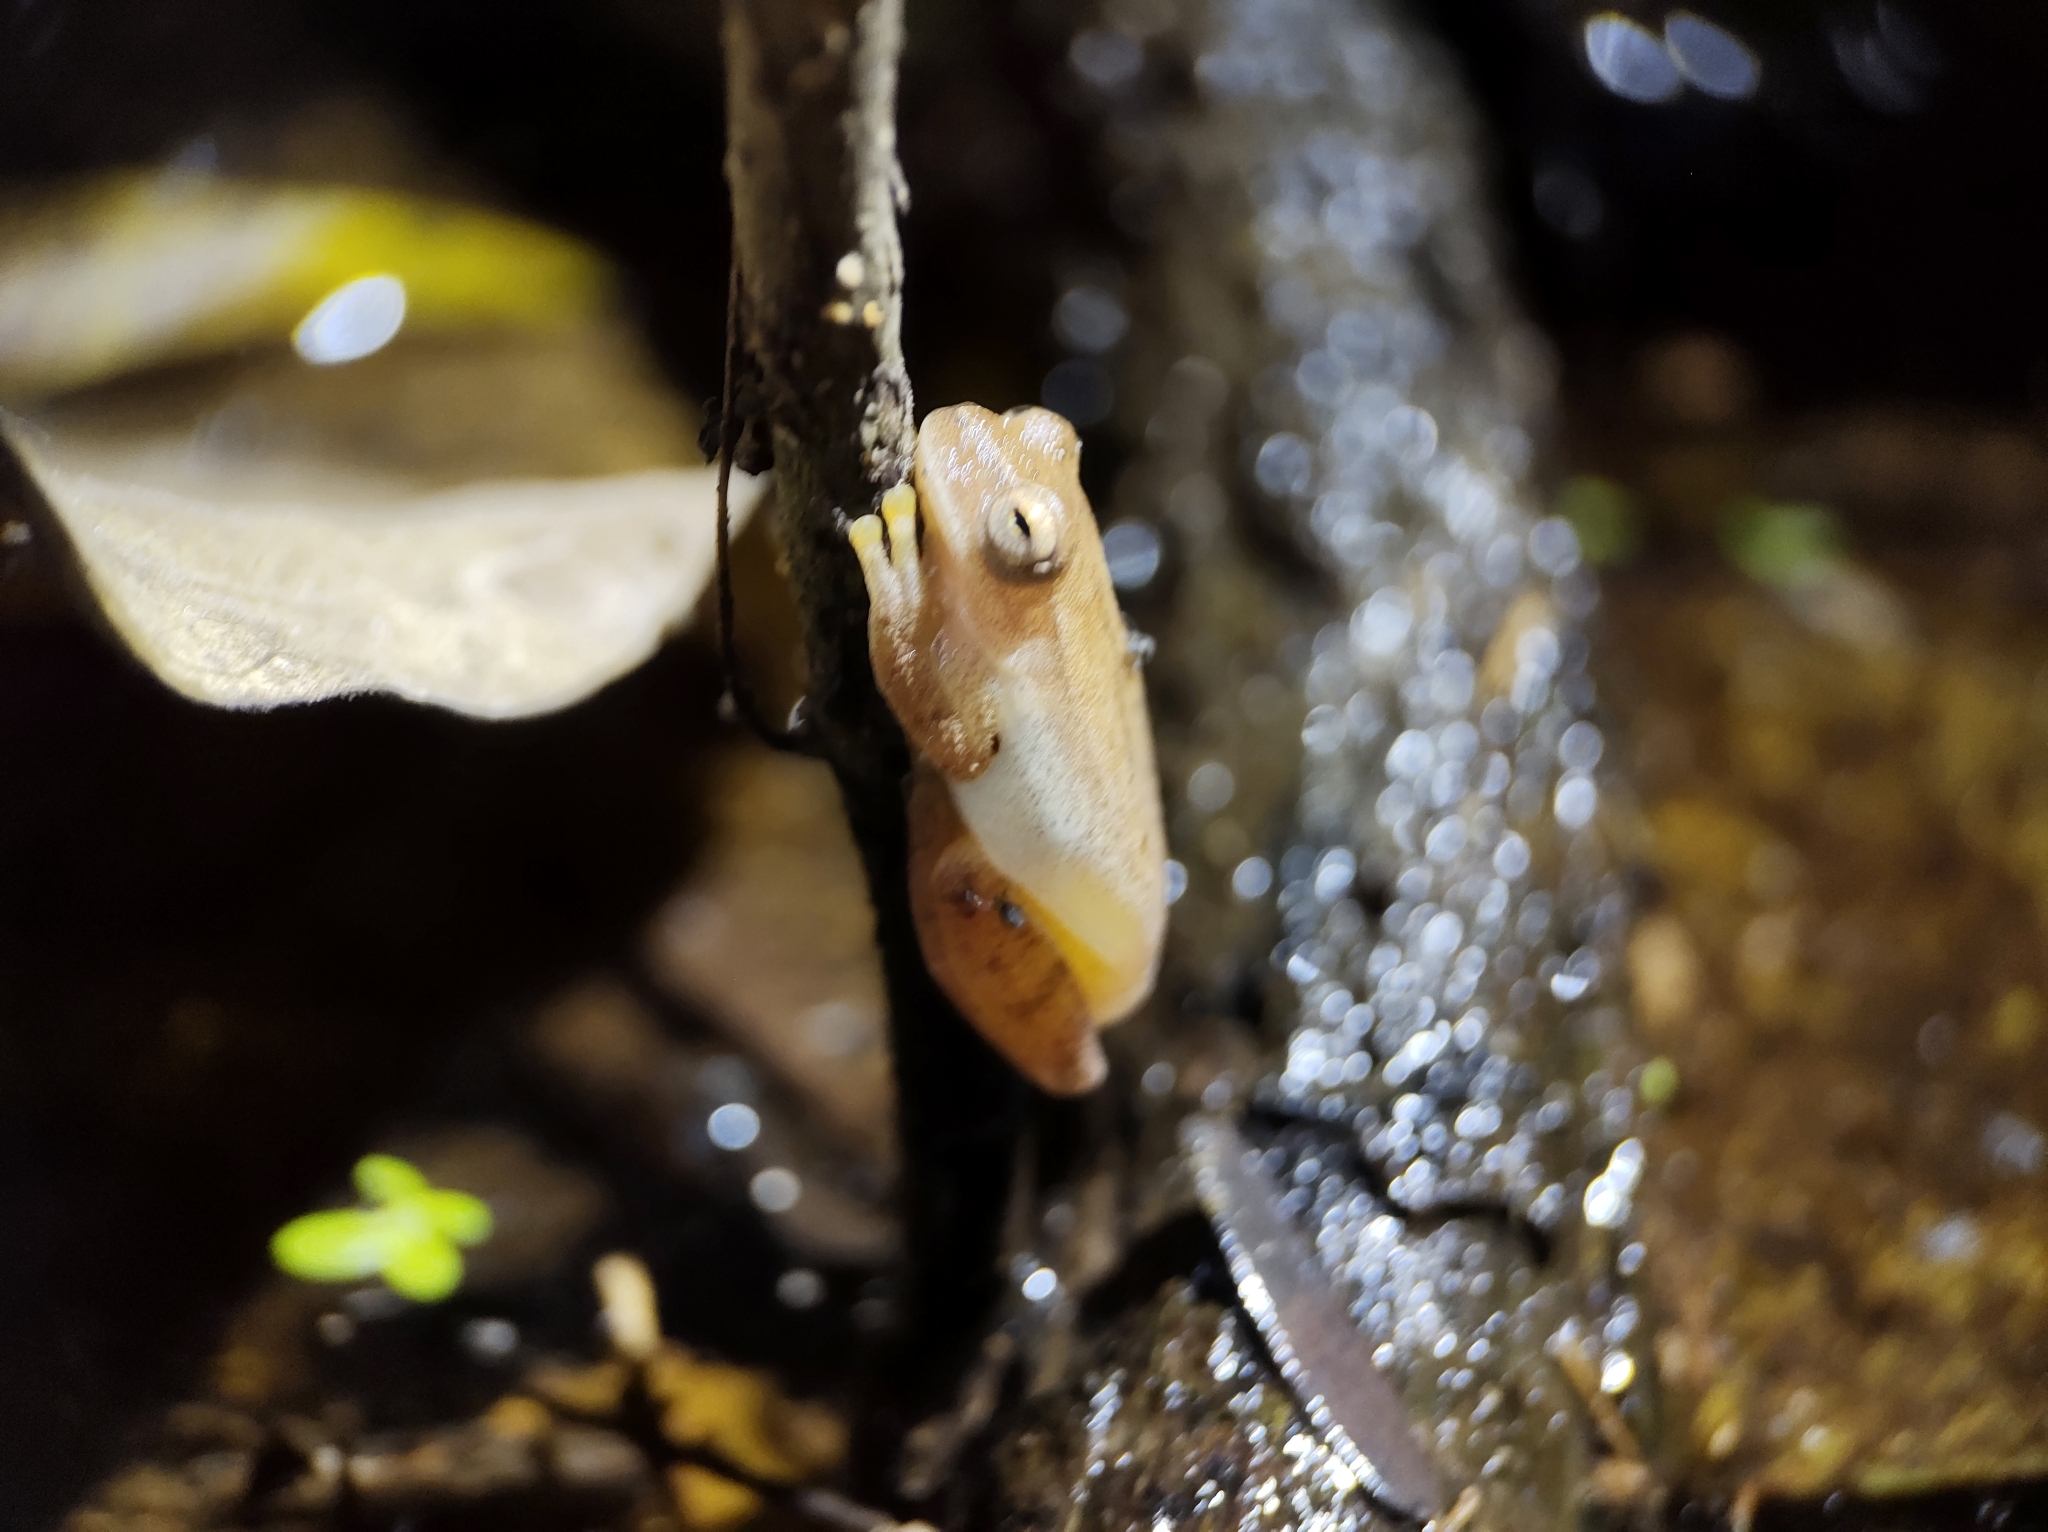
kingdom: Animalia
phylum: Chordata
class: Amphibia
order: Anura
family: Hylidae
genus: Dendropsophus
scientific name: Dendropsophus microcephalus
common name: Small-headed treefrog
